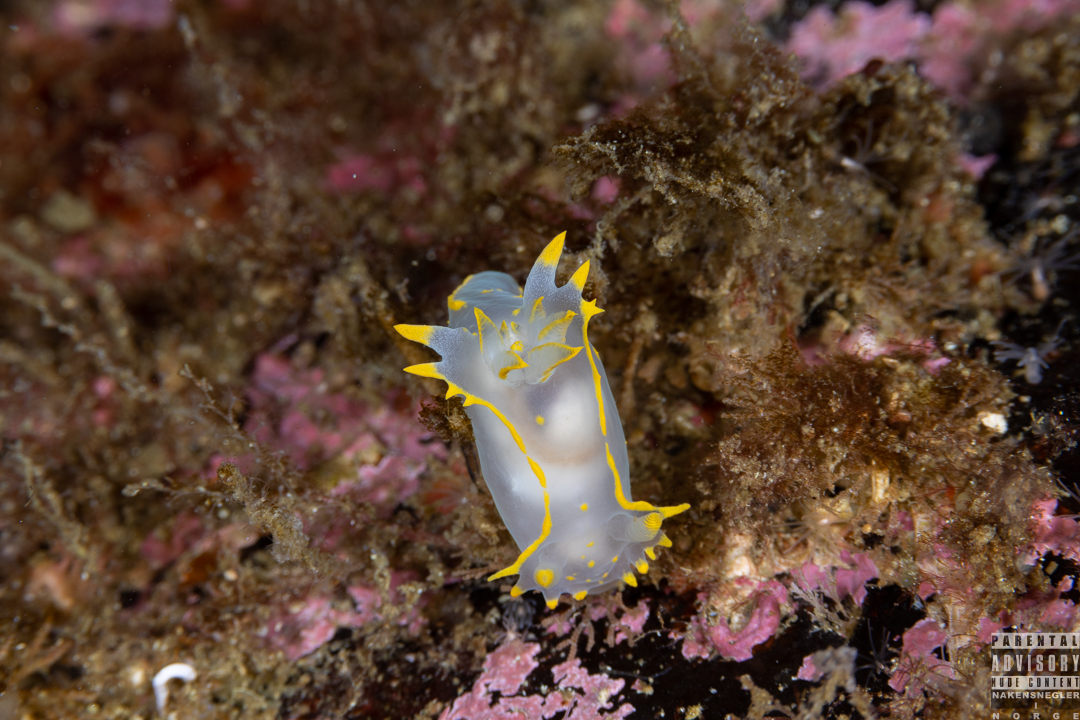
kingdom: Animalia
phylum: Mollusca
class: Gastropoda
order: Nudibranchia
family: Polyceridae
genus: Polycera
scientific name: Polycera faeroensis
